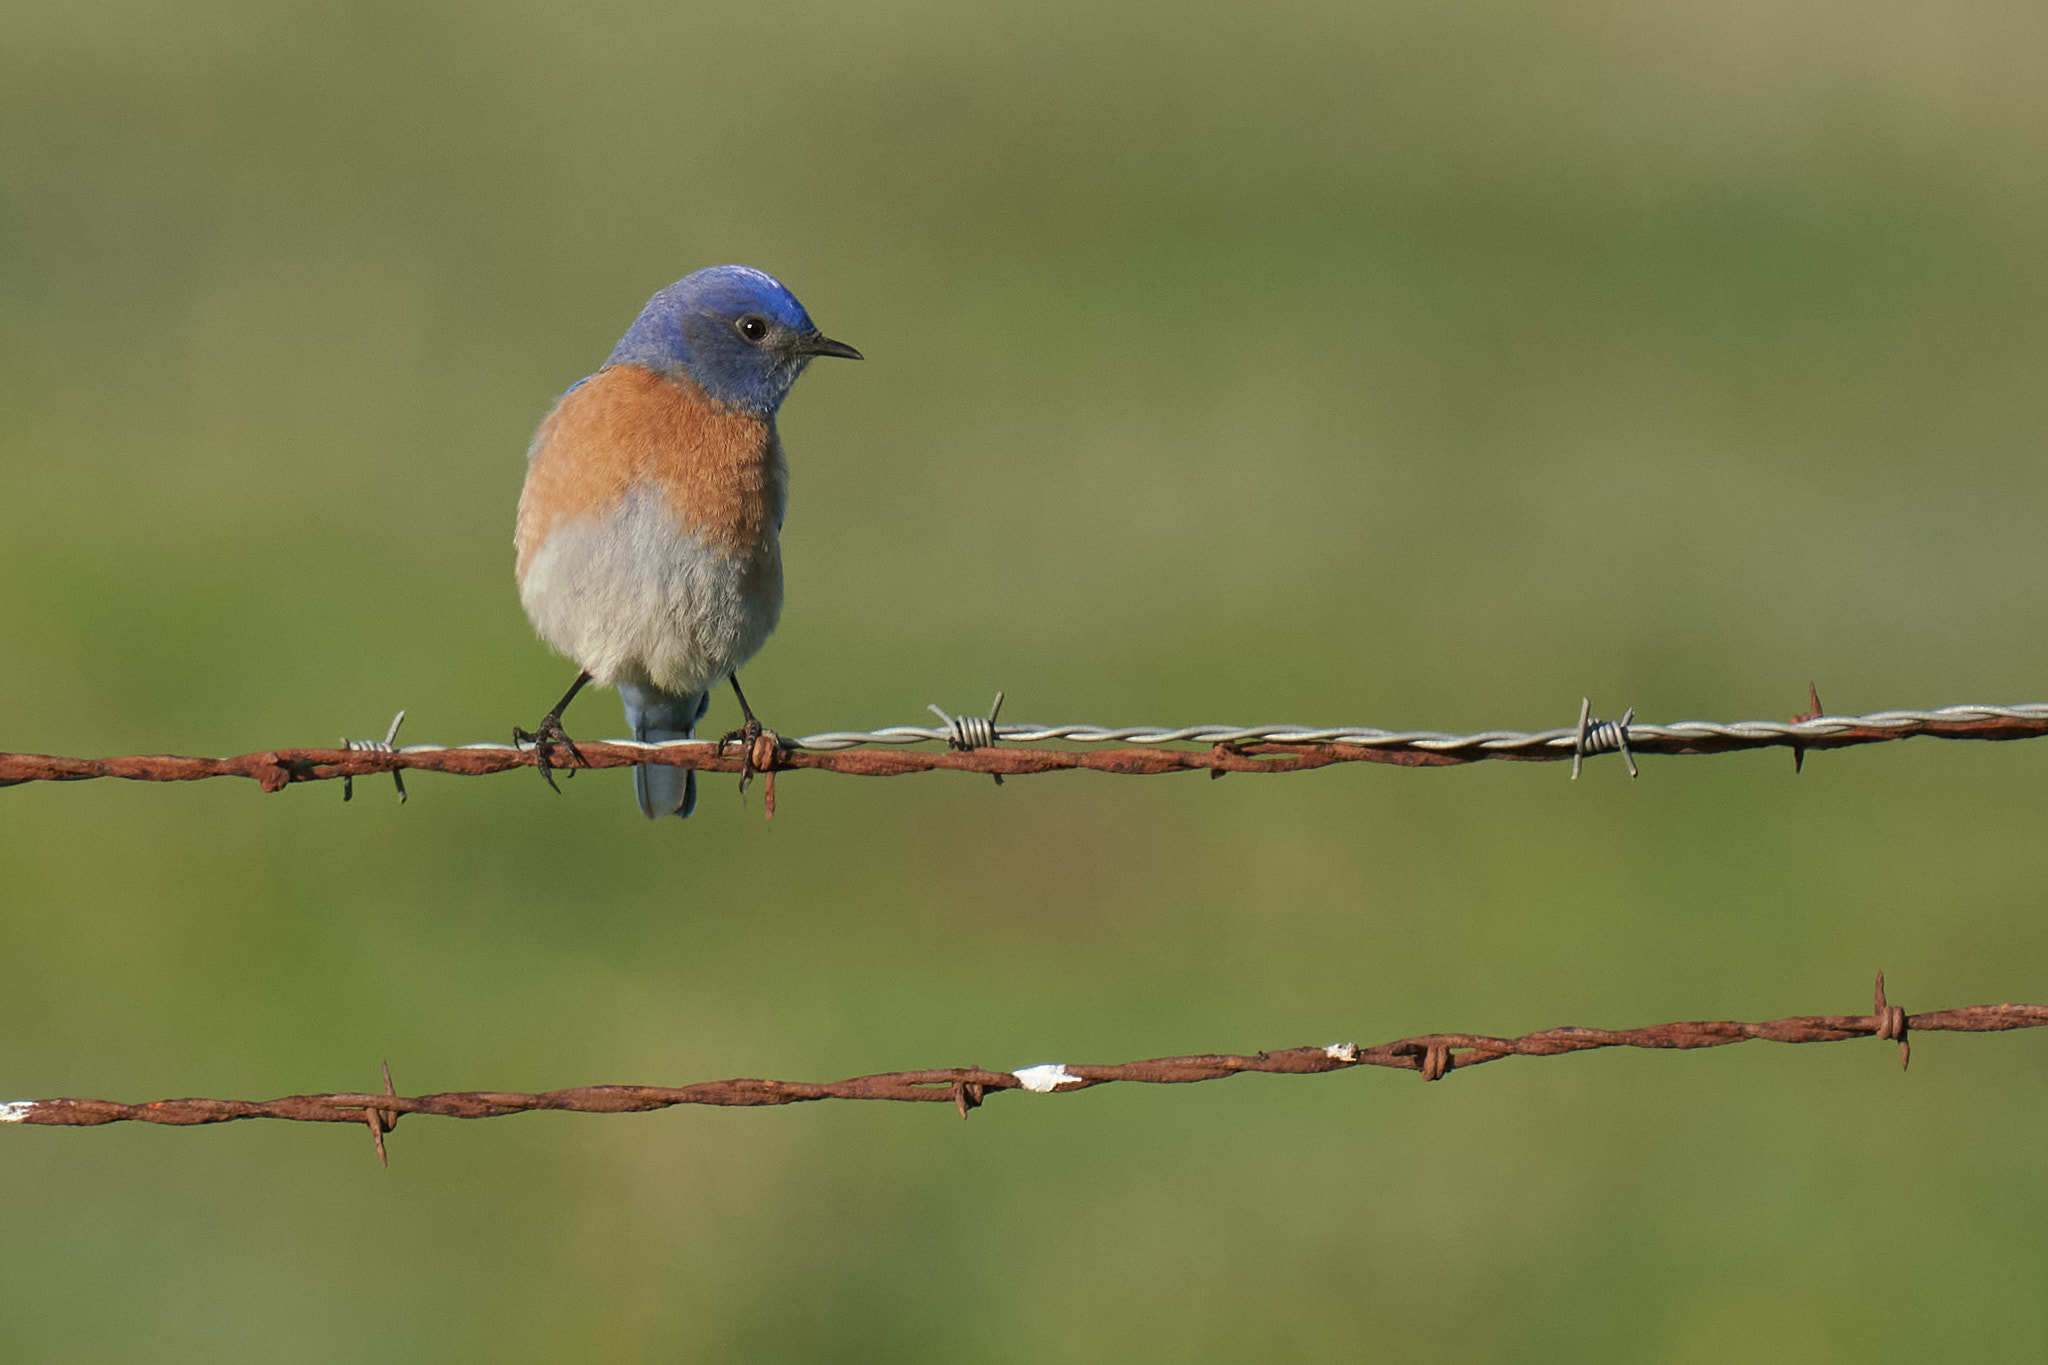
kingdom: Animalia
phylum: Chordata
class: Aves
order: Passeriformes
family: Turdidae
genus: Sialia
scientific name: Sialia mexicana
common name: Western bluebird
